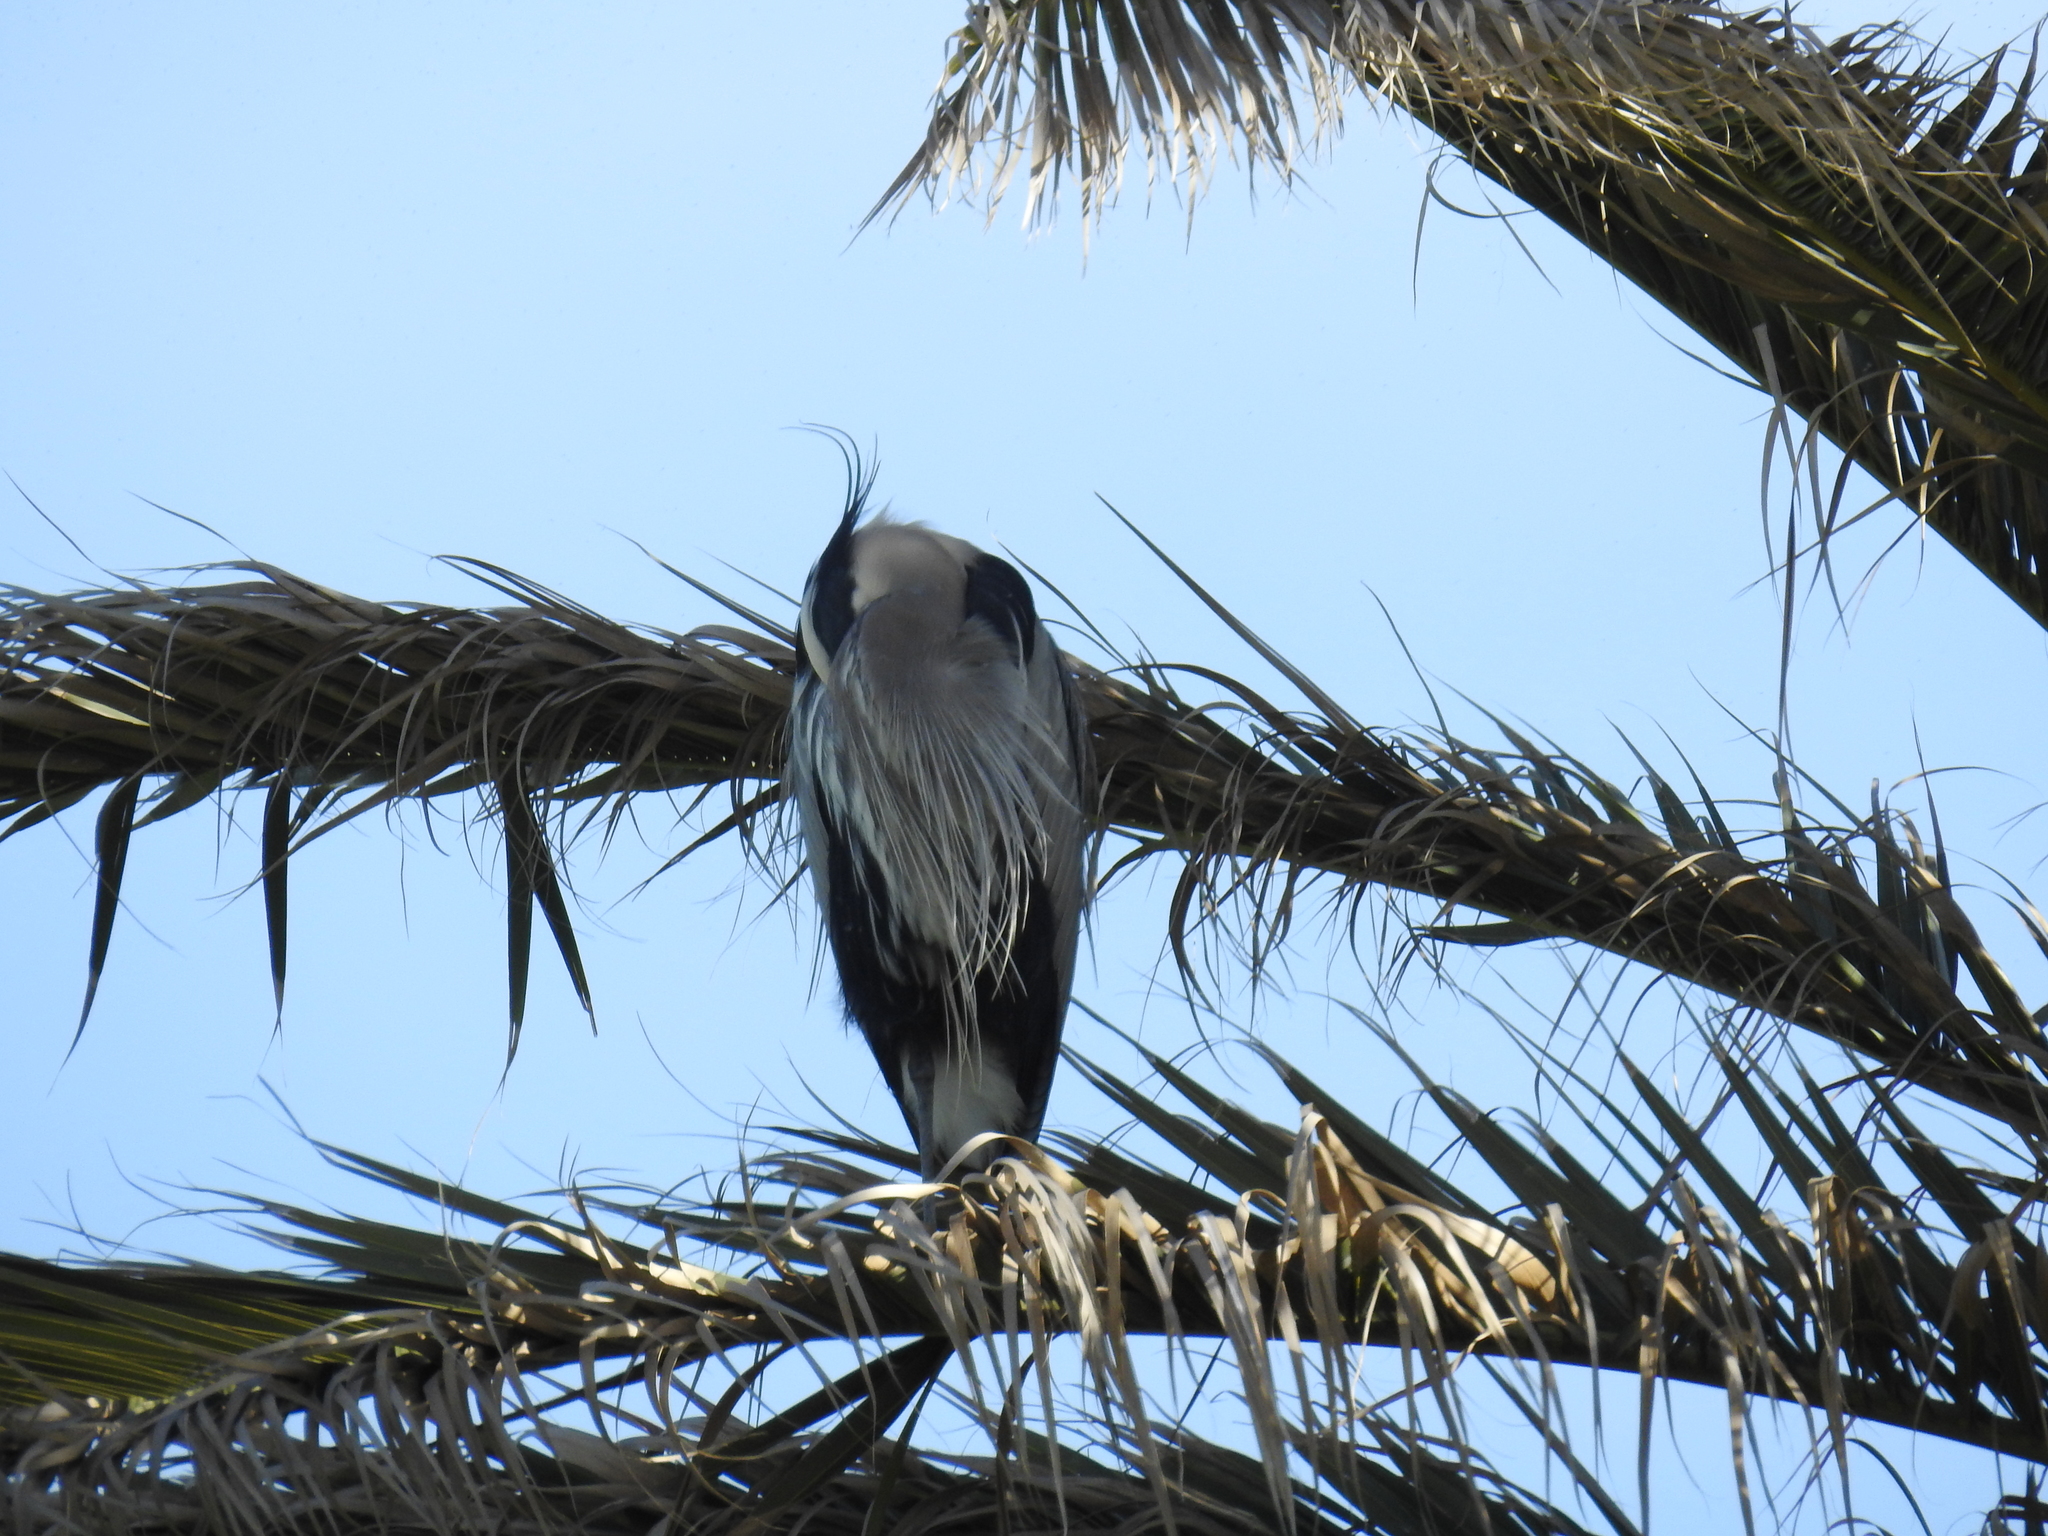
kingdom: Animalia
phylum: Chordata
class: Aves
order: Pelecaniformes
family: Ardeidae
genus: Ardea
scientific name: Ardea herodias
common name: Great blue heron
